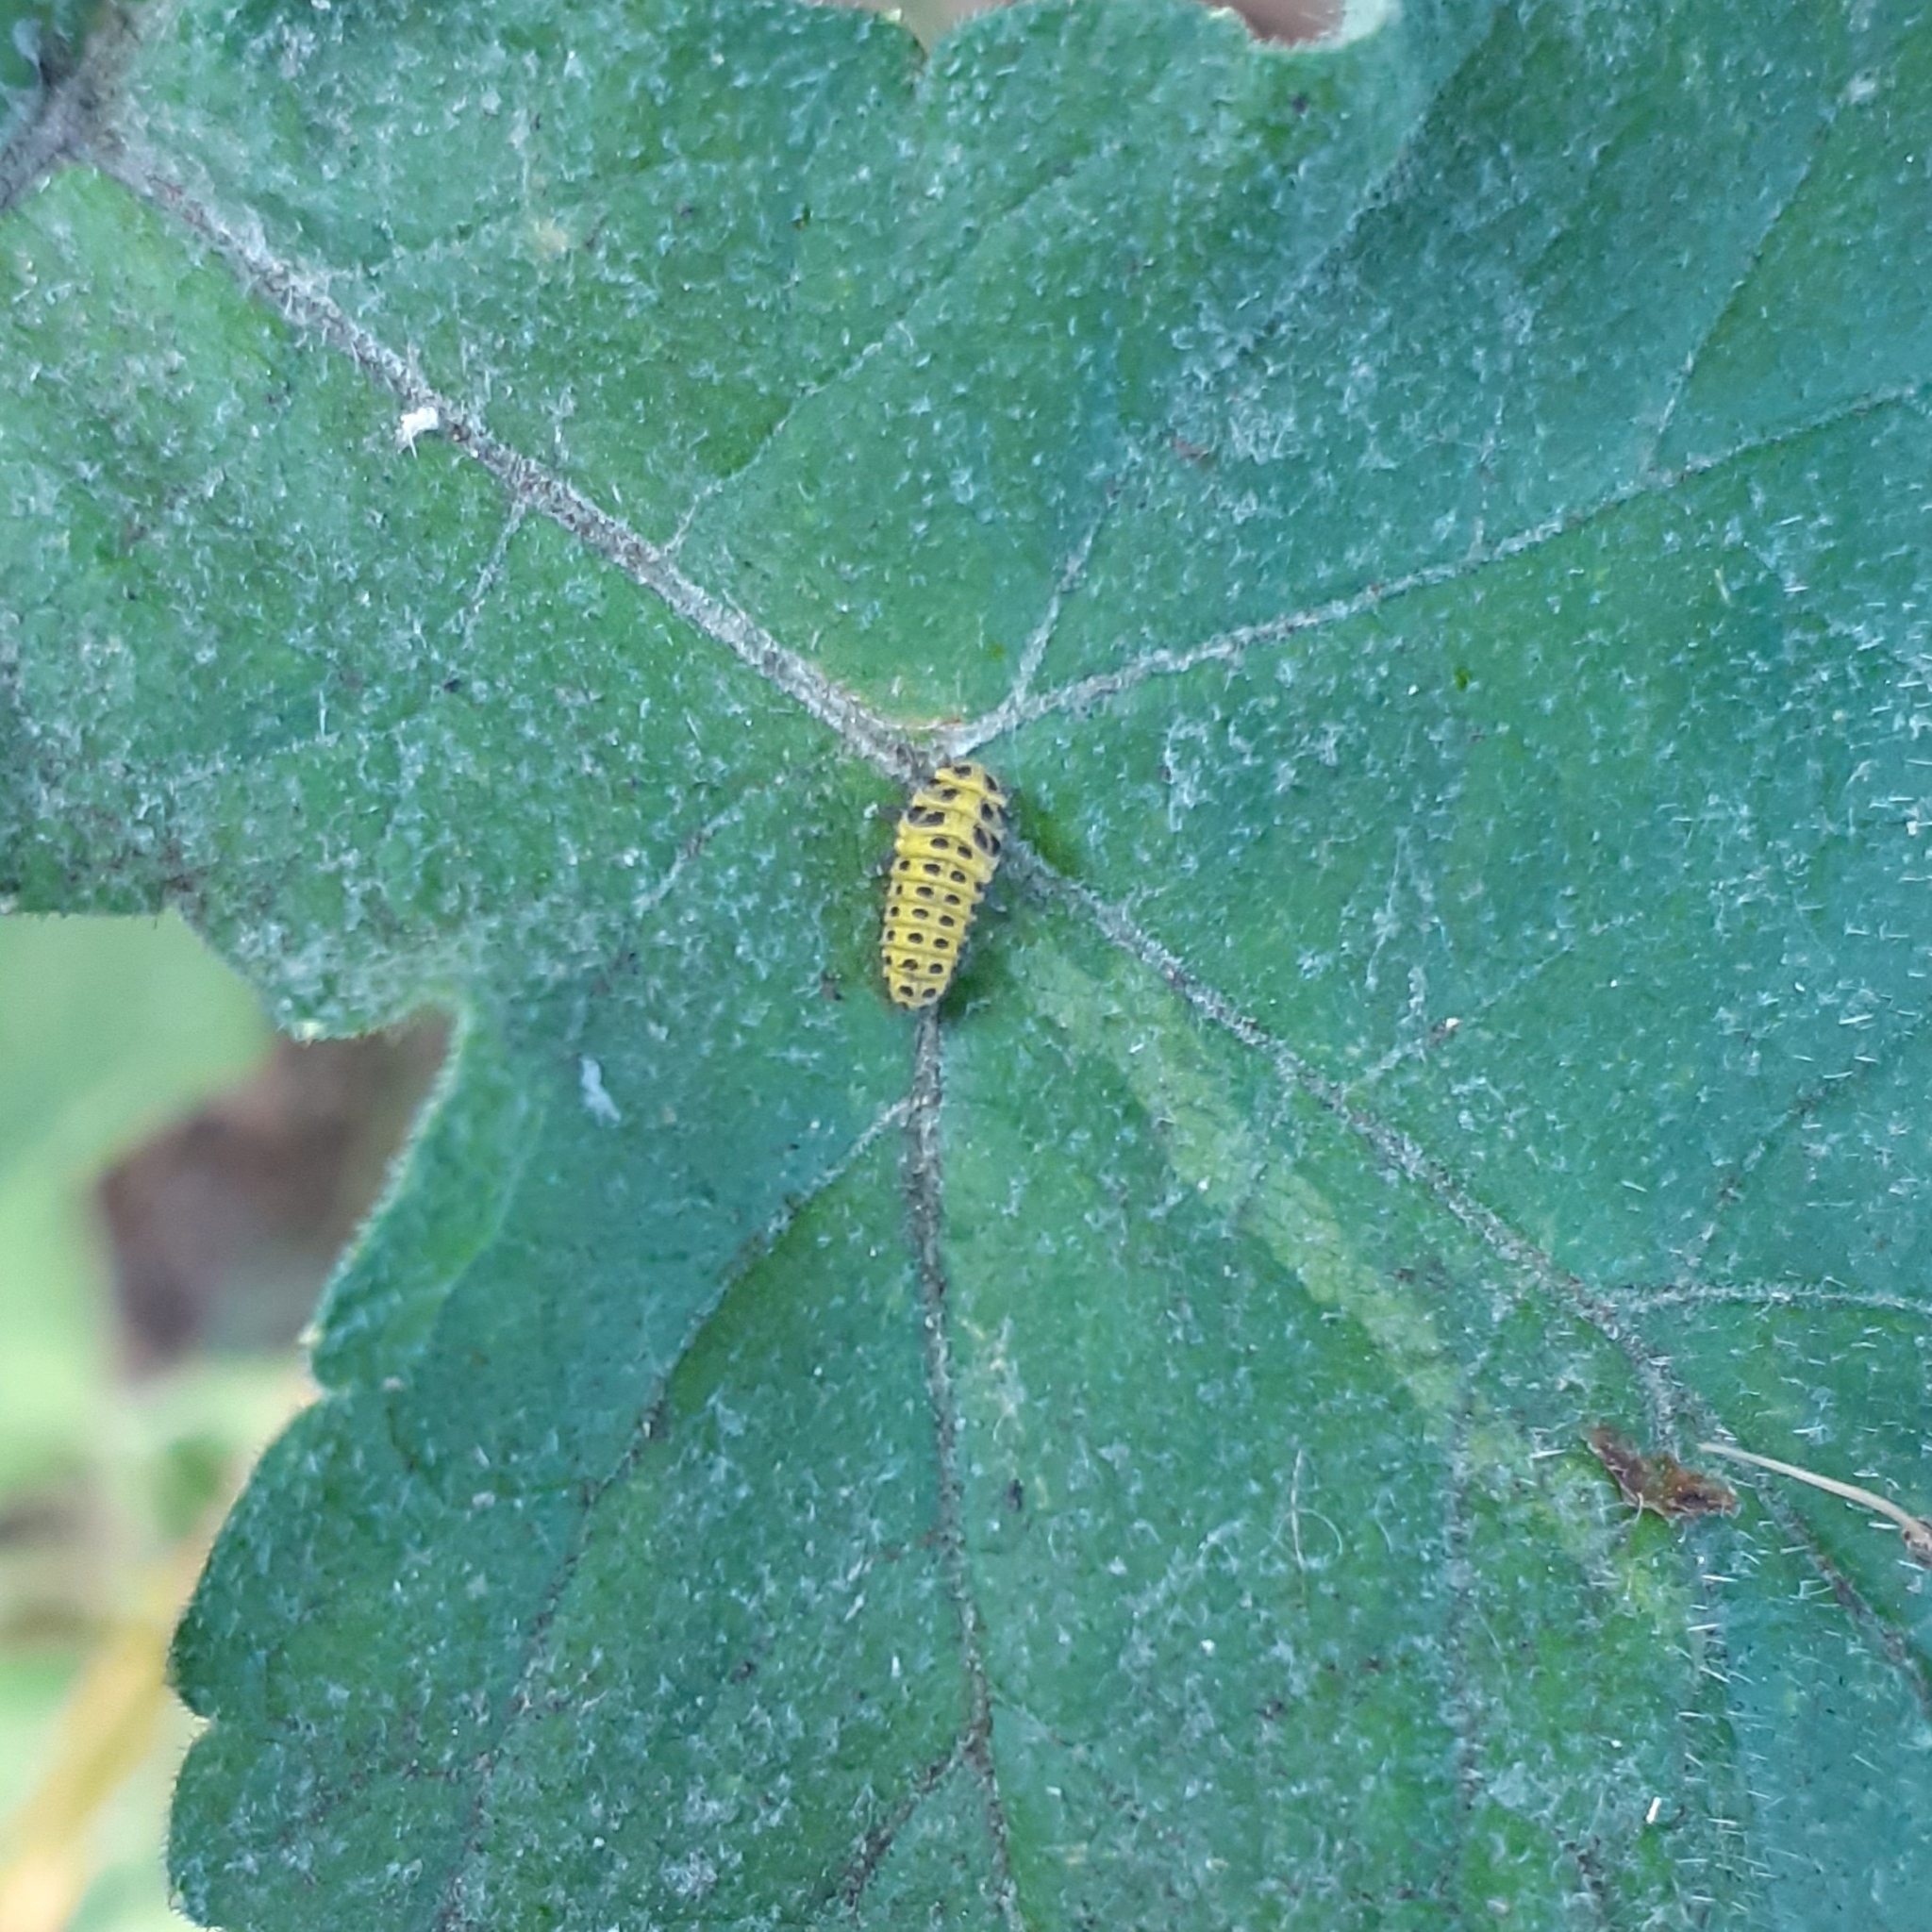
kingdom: Animalia
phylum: Arthropoda
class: Insecta
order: Coleoptera
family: Coccinellidae
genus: Psyllobora
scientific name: Psyllobora vigintiduopunctata
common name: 22-spot ladybird
